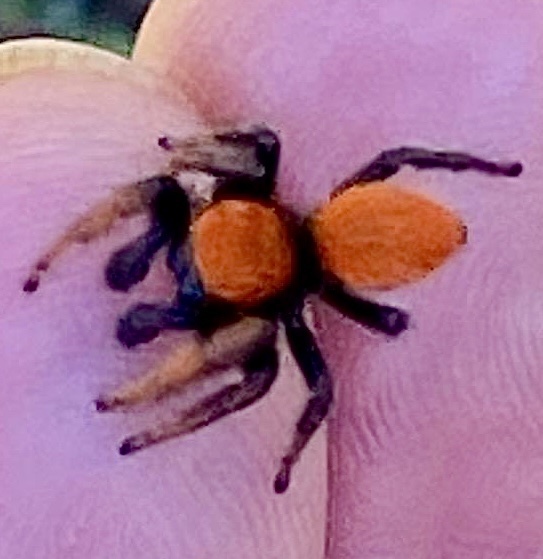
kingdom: Animalia
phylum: Arthropoda
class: Arachnida
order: Araneae
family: Salticidae
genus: Phidippus
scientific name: Phidippus nikites
